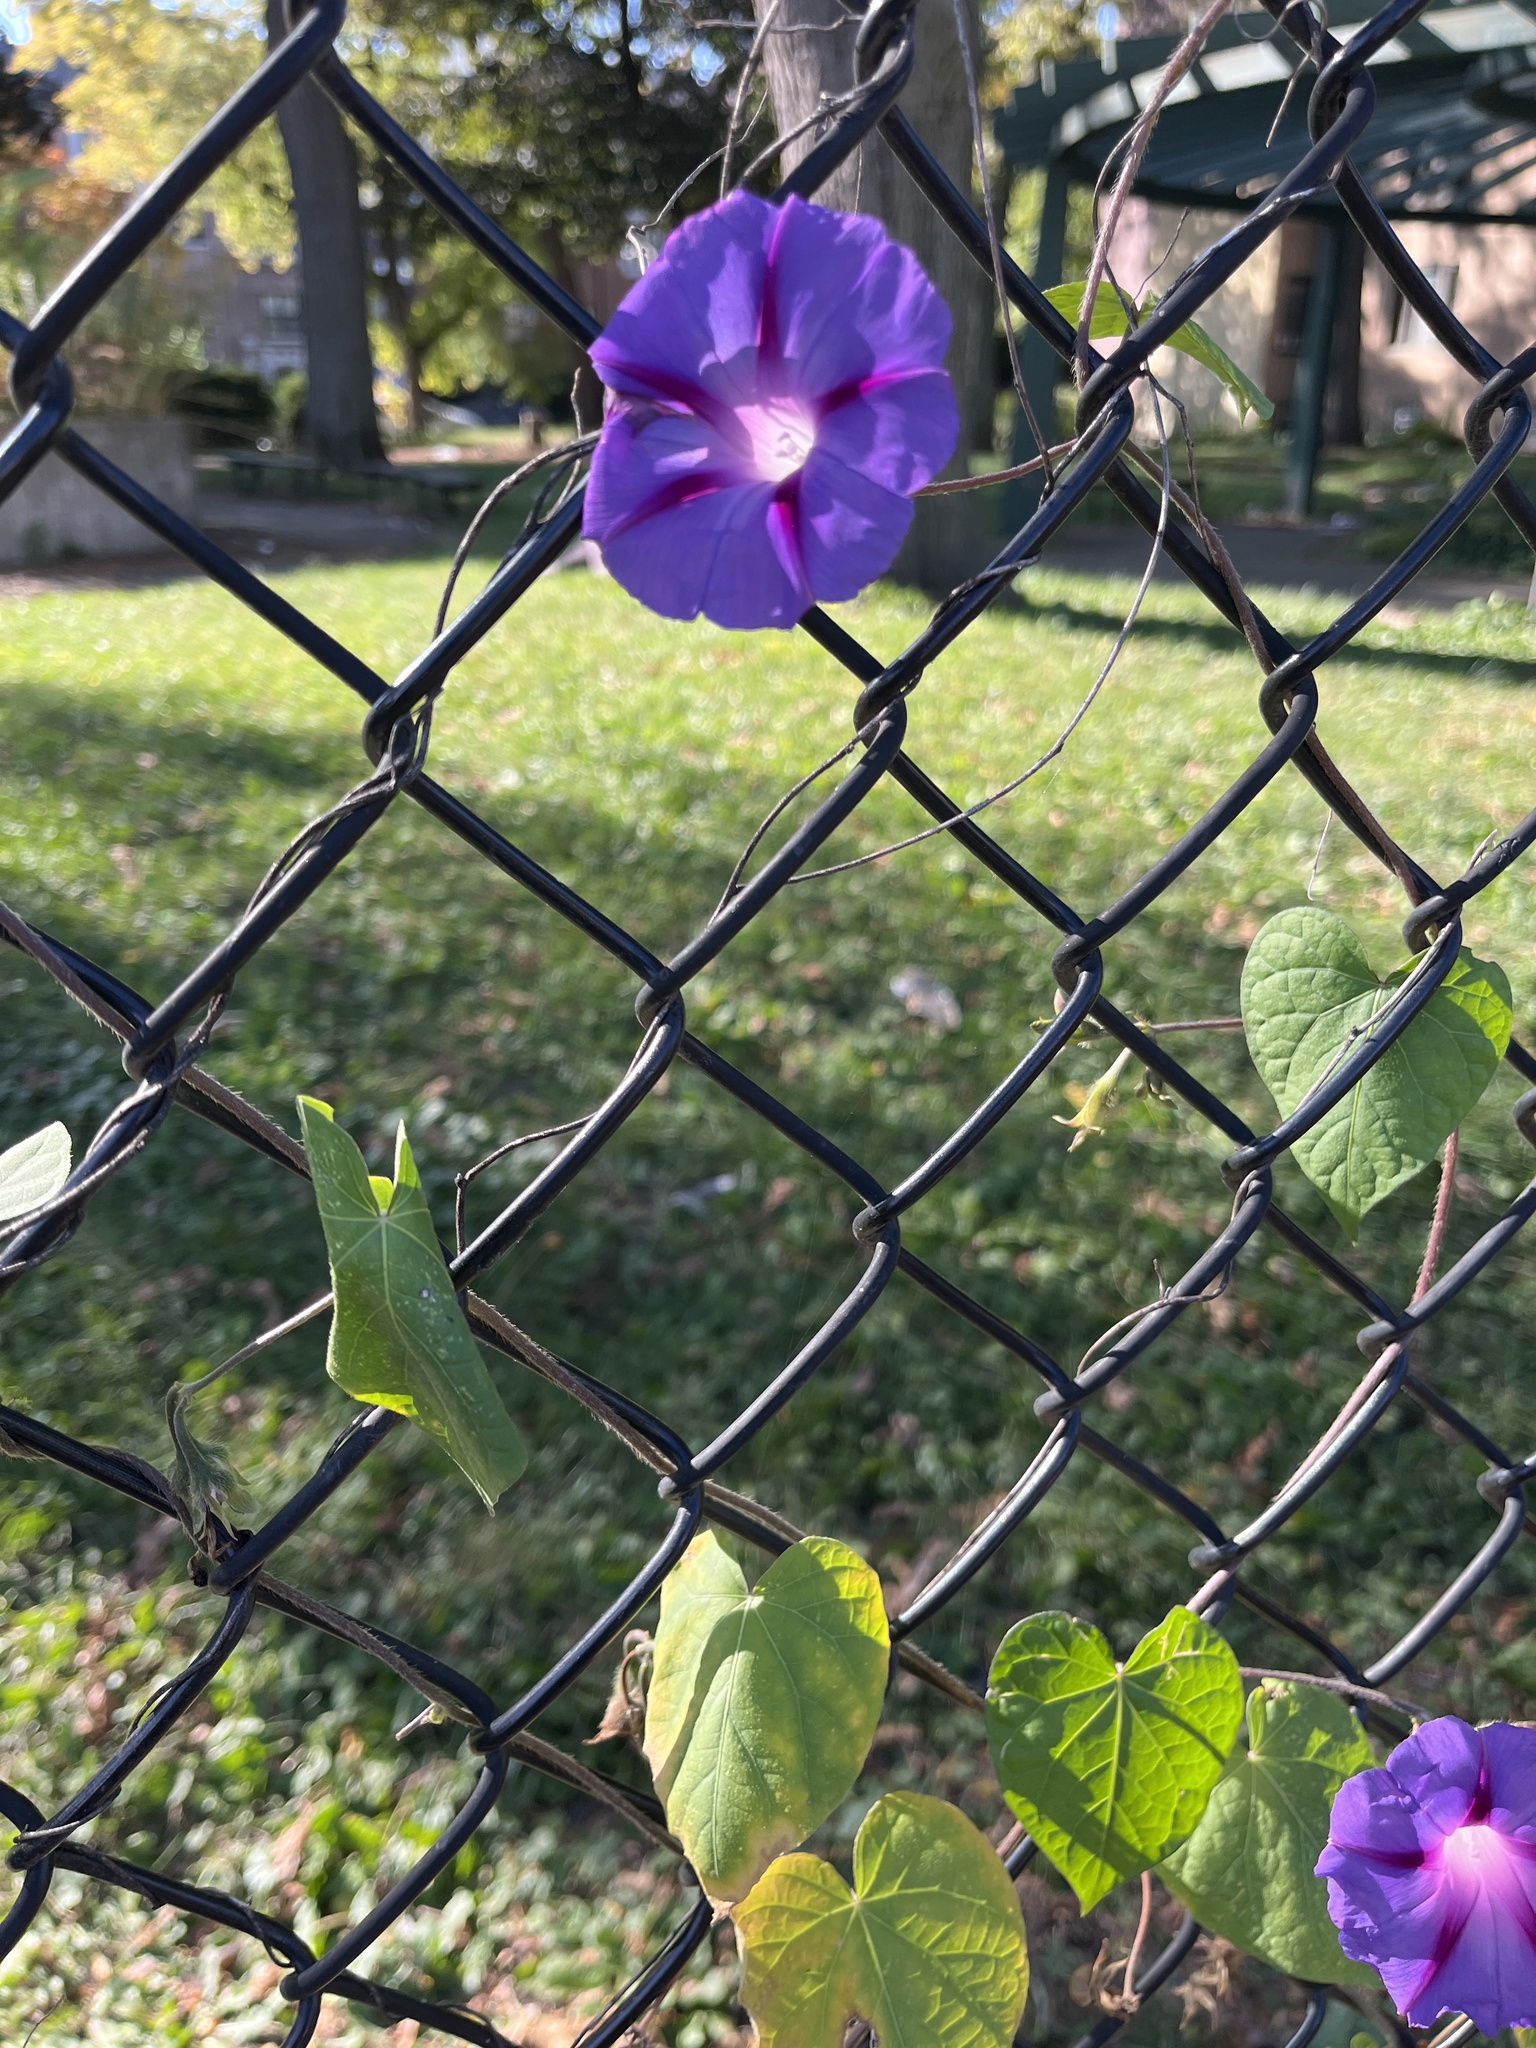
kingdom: Plantae
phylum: Tracheophyta
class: Magnoliopsida
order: Solanales
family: Convolvulaceae
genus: Ipomoea
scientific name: Ipomoea purpurea
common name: Common morning-glory
